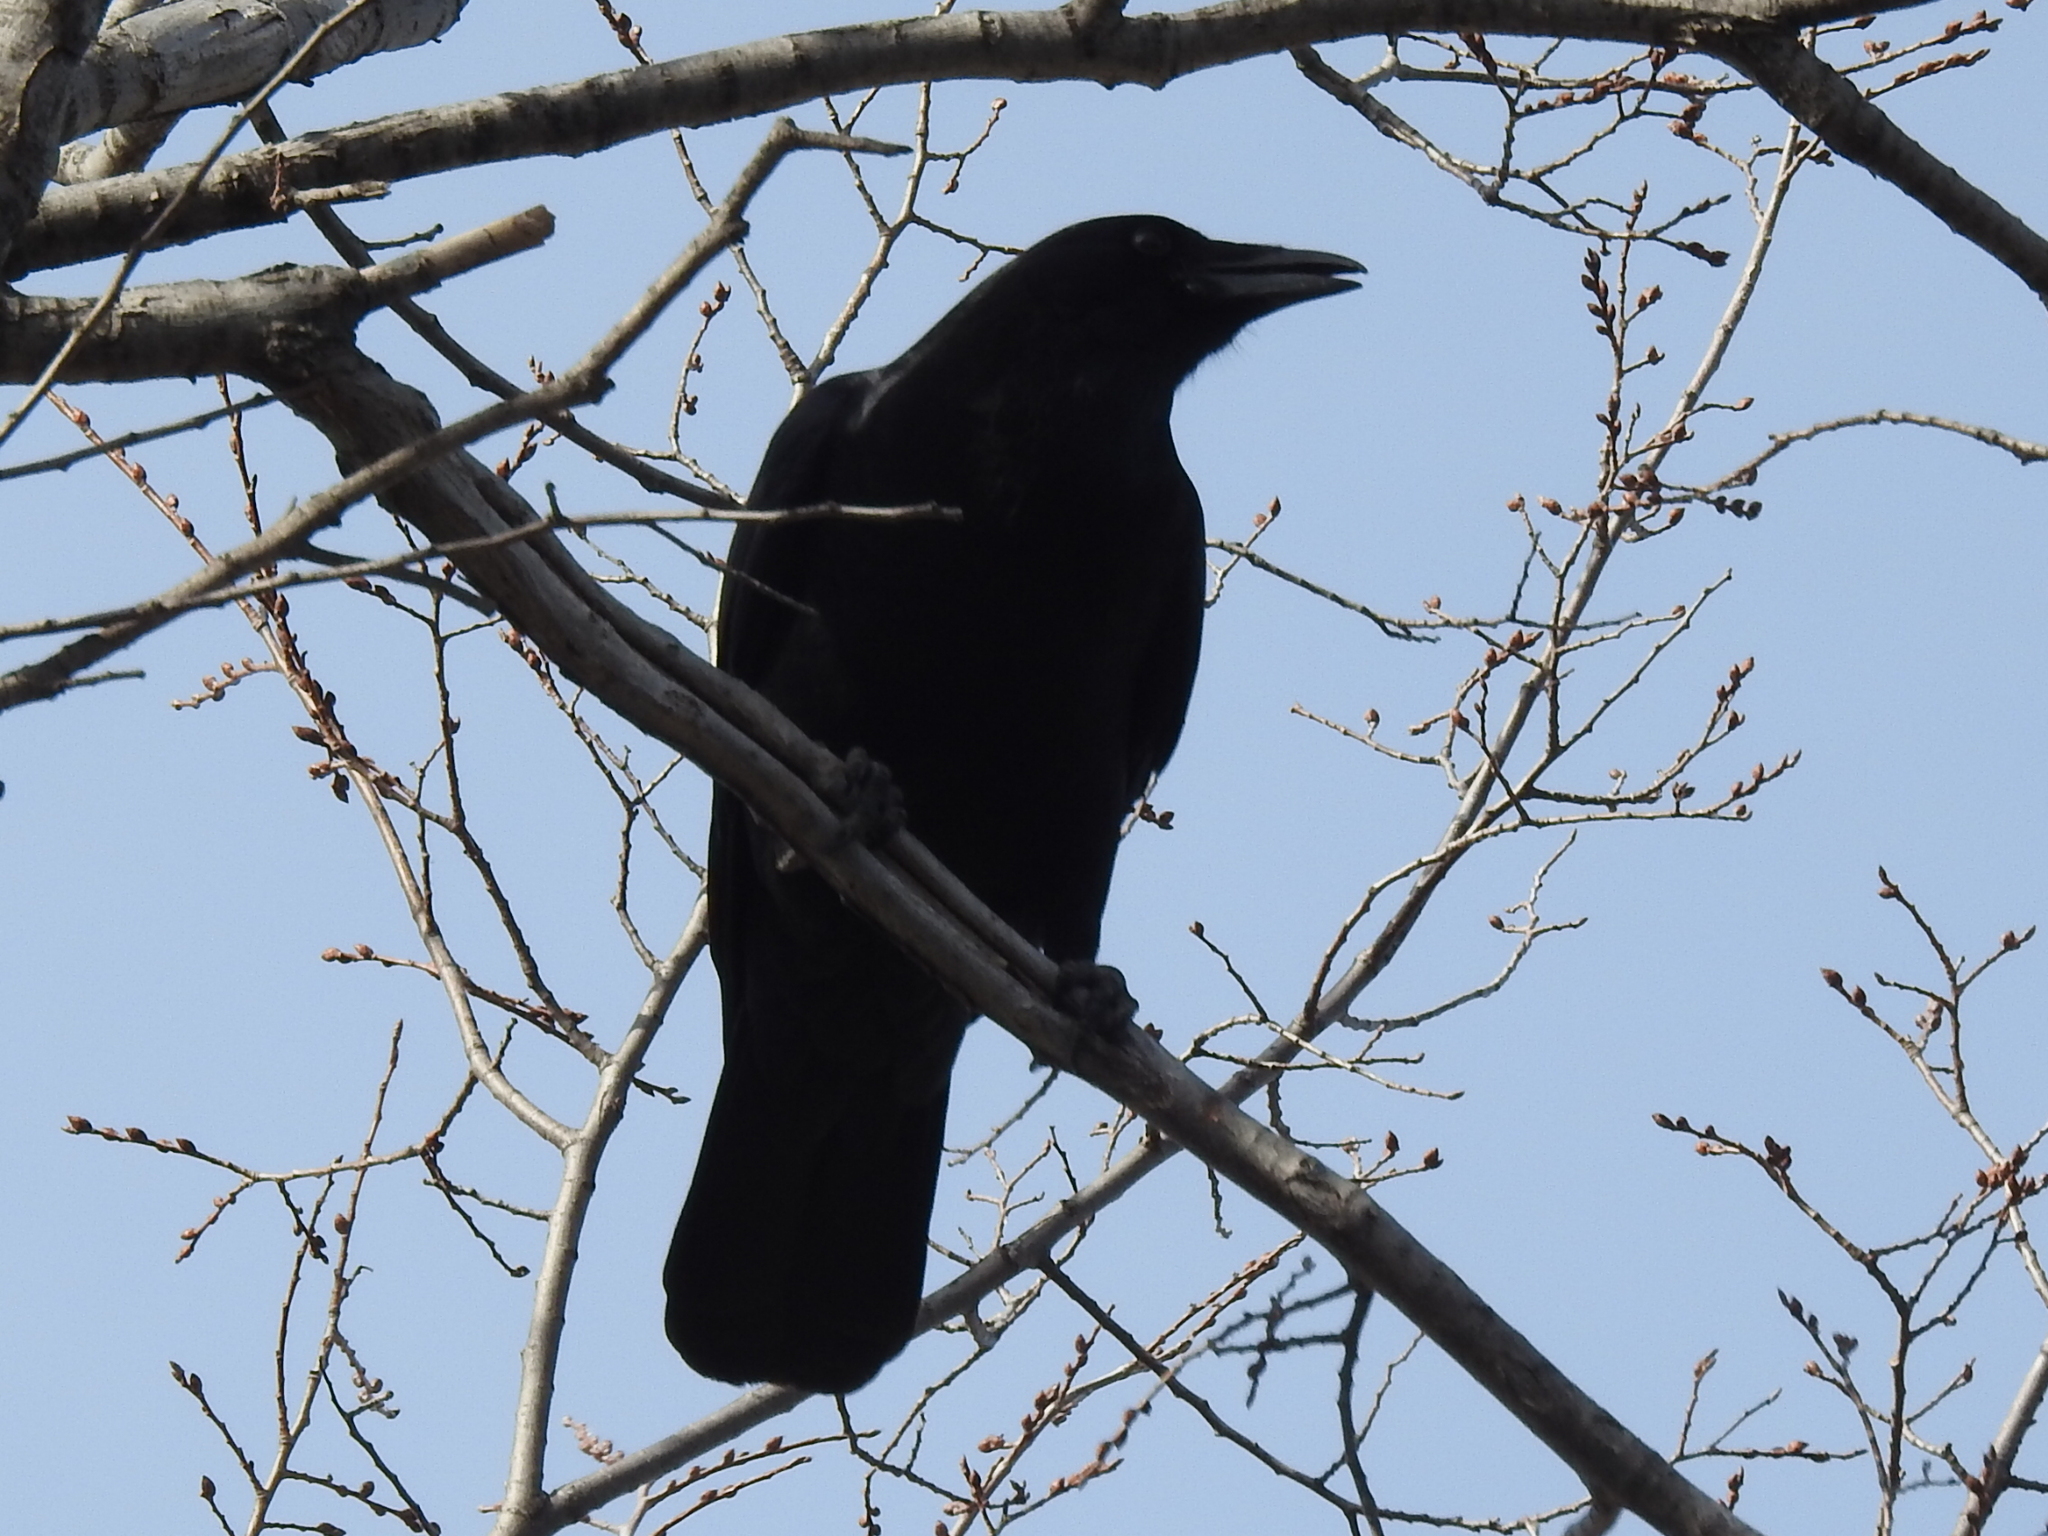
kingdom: Animalia
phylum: Chordata
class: Aves
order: Passeriformes
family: Corvidae
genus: Corvus
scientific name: Corvus brachyrhynchos
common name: American crow
